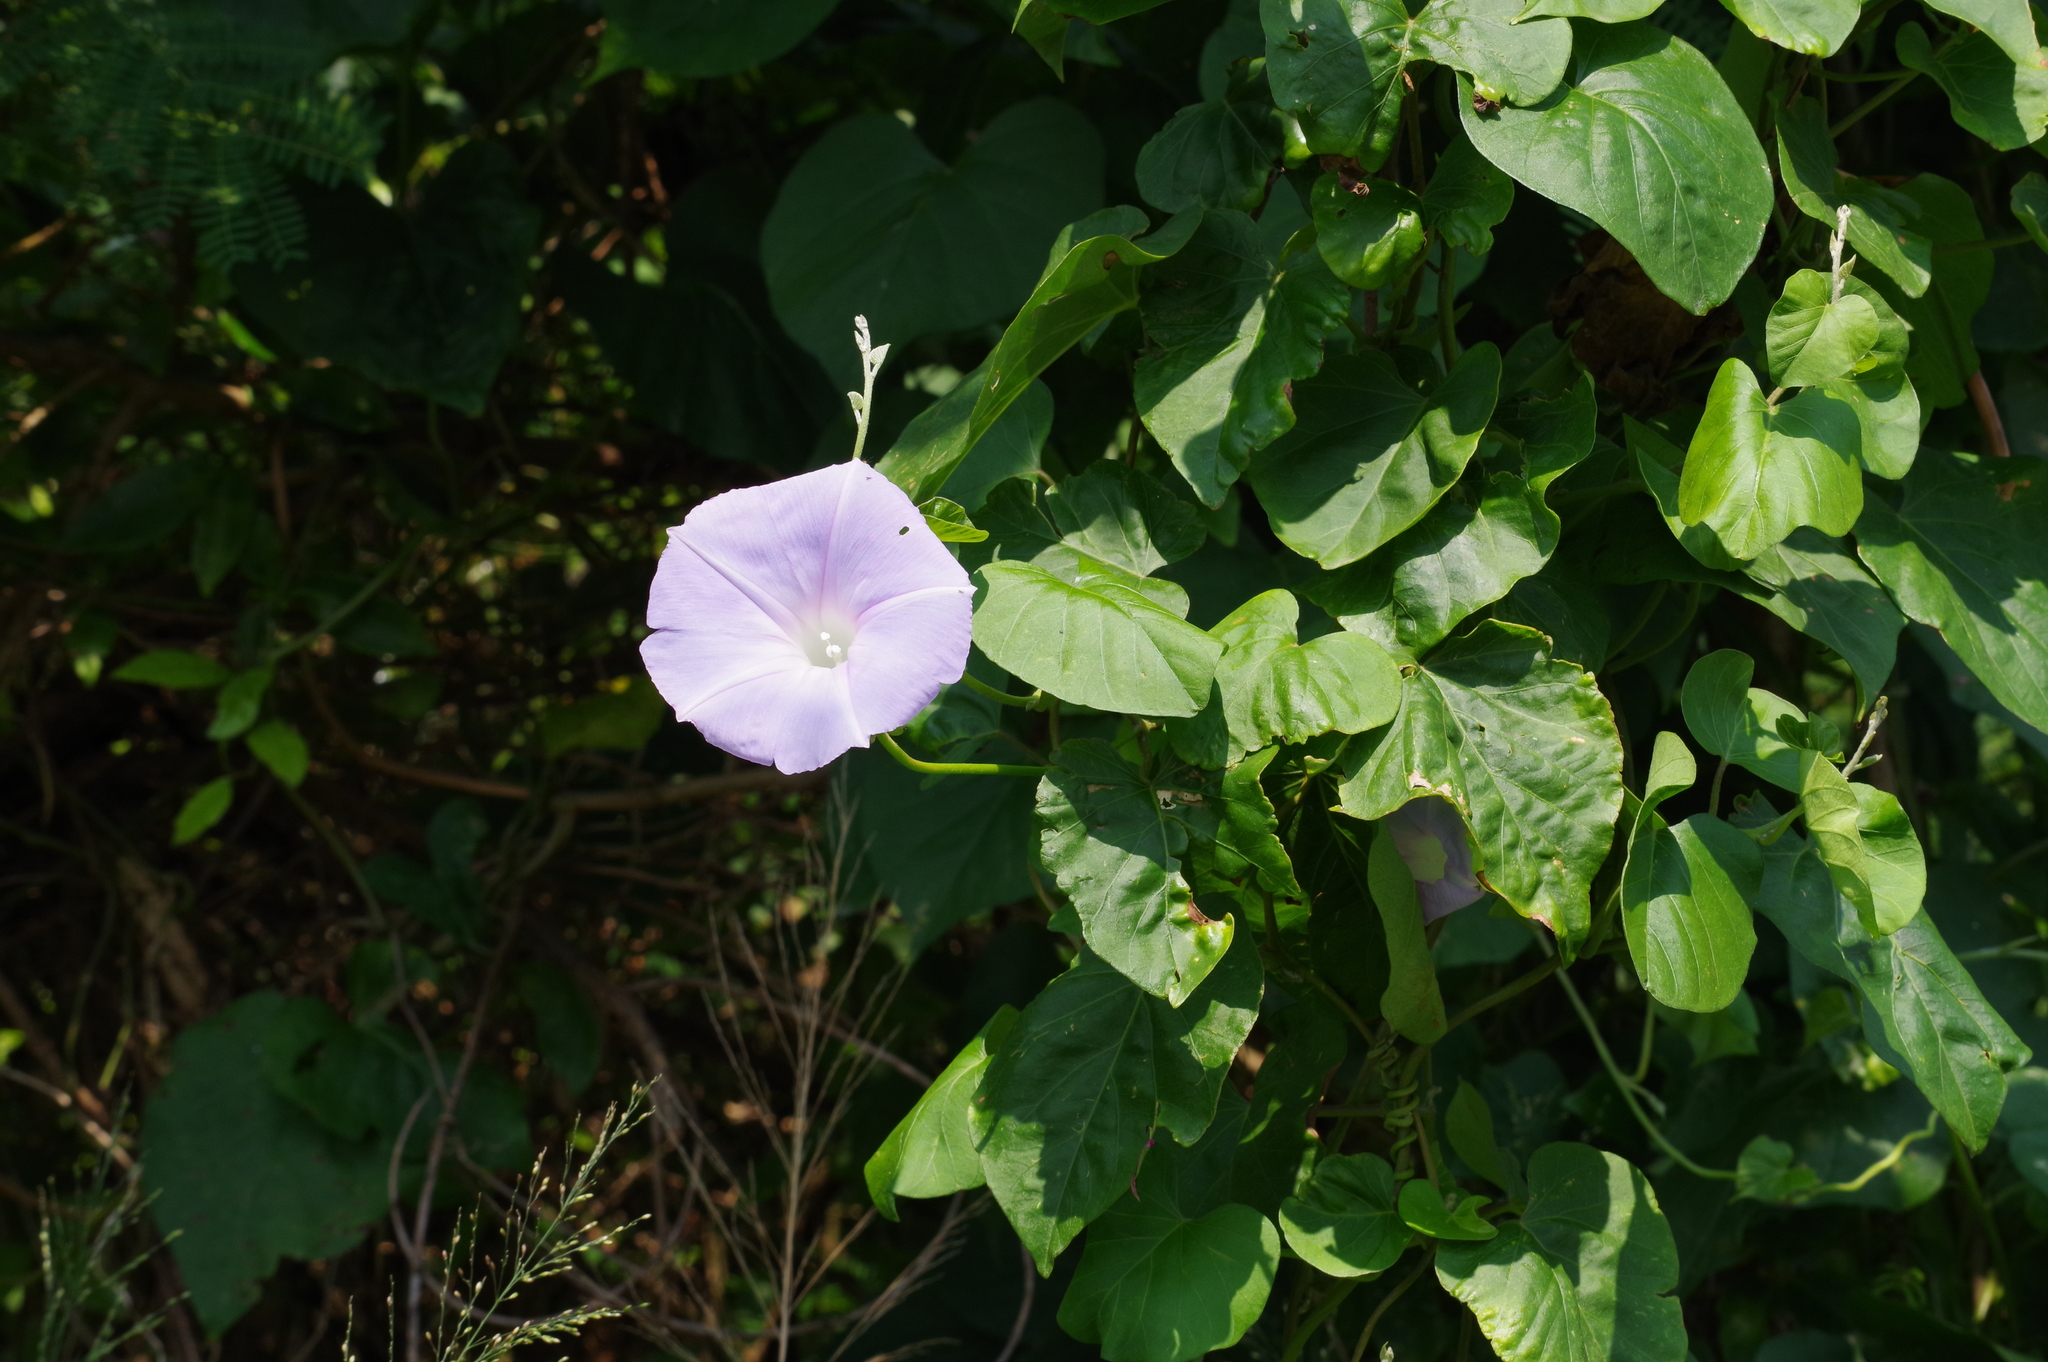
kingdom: Plantae
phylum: Tracheophyta
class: Magnoliopsida
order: Solanales
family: Convolvulaceae
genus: Ipomoea
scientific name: Ipomoea indica
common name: Blue dawnflower
